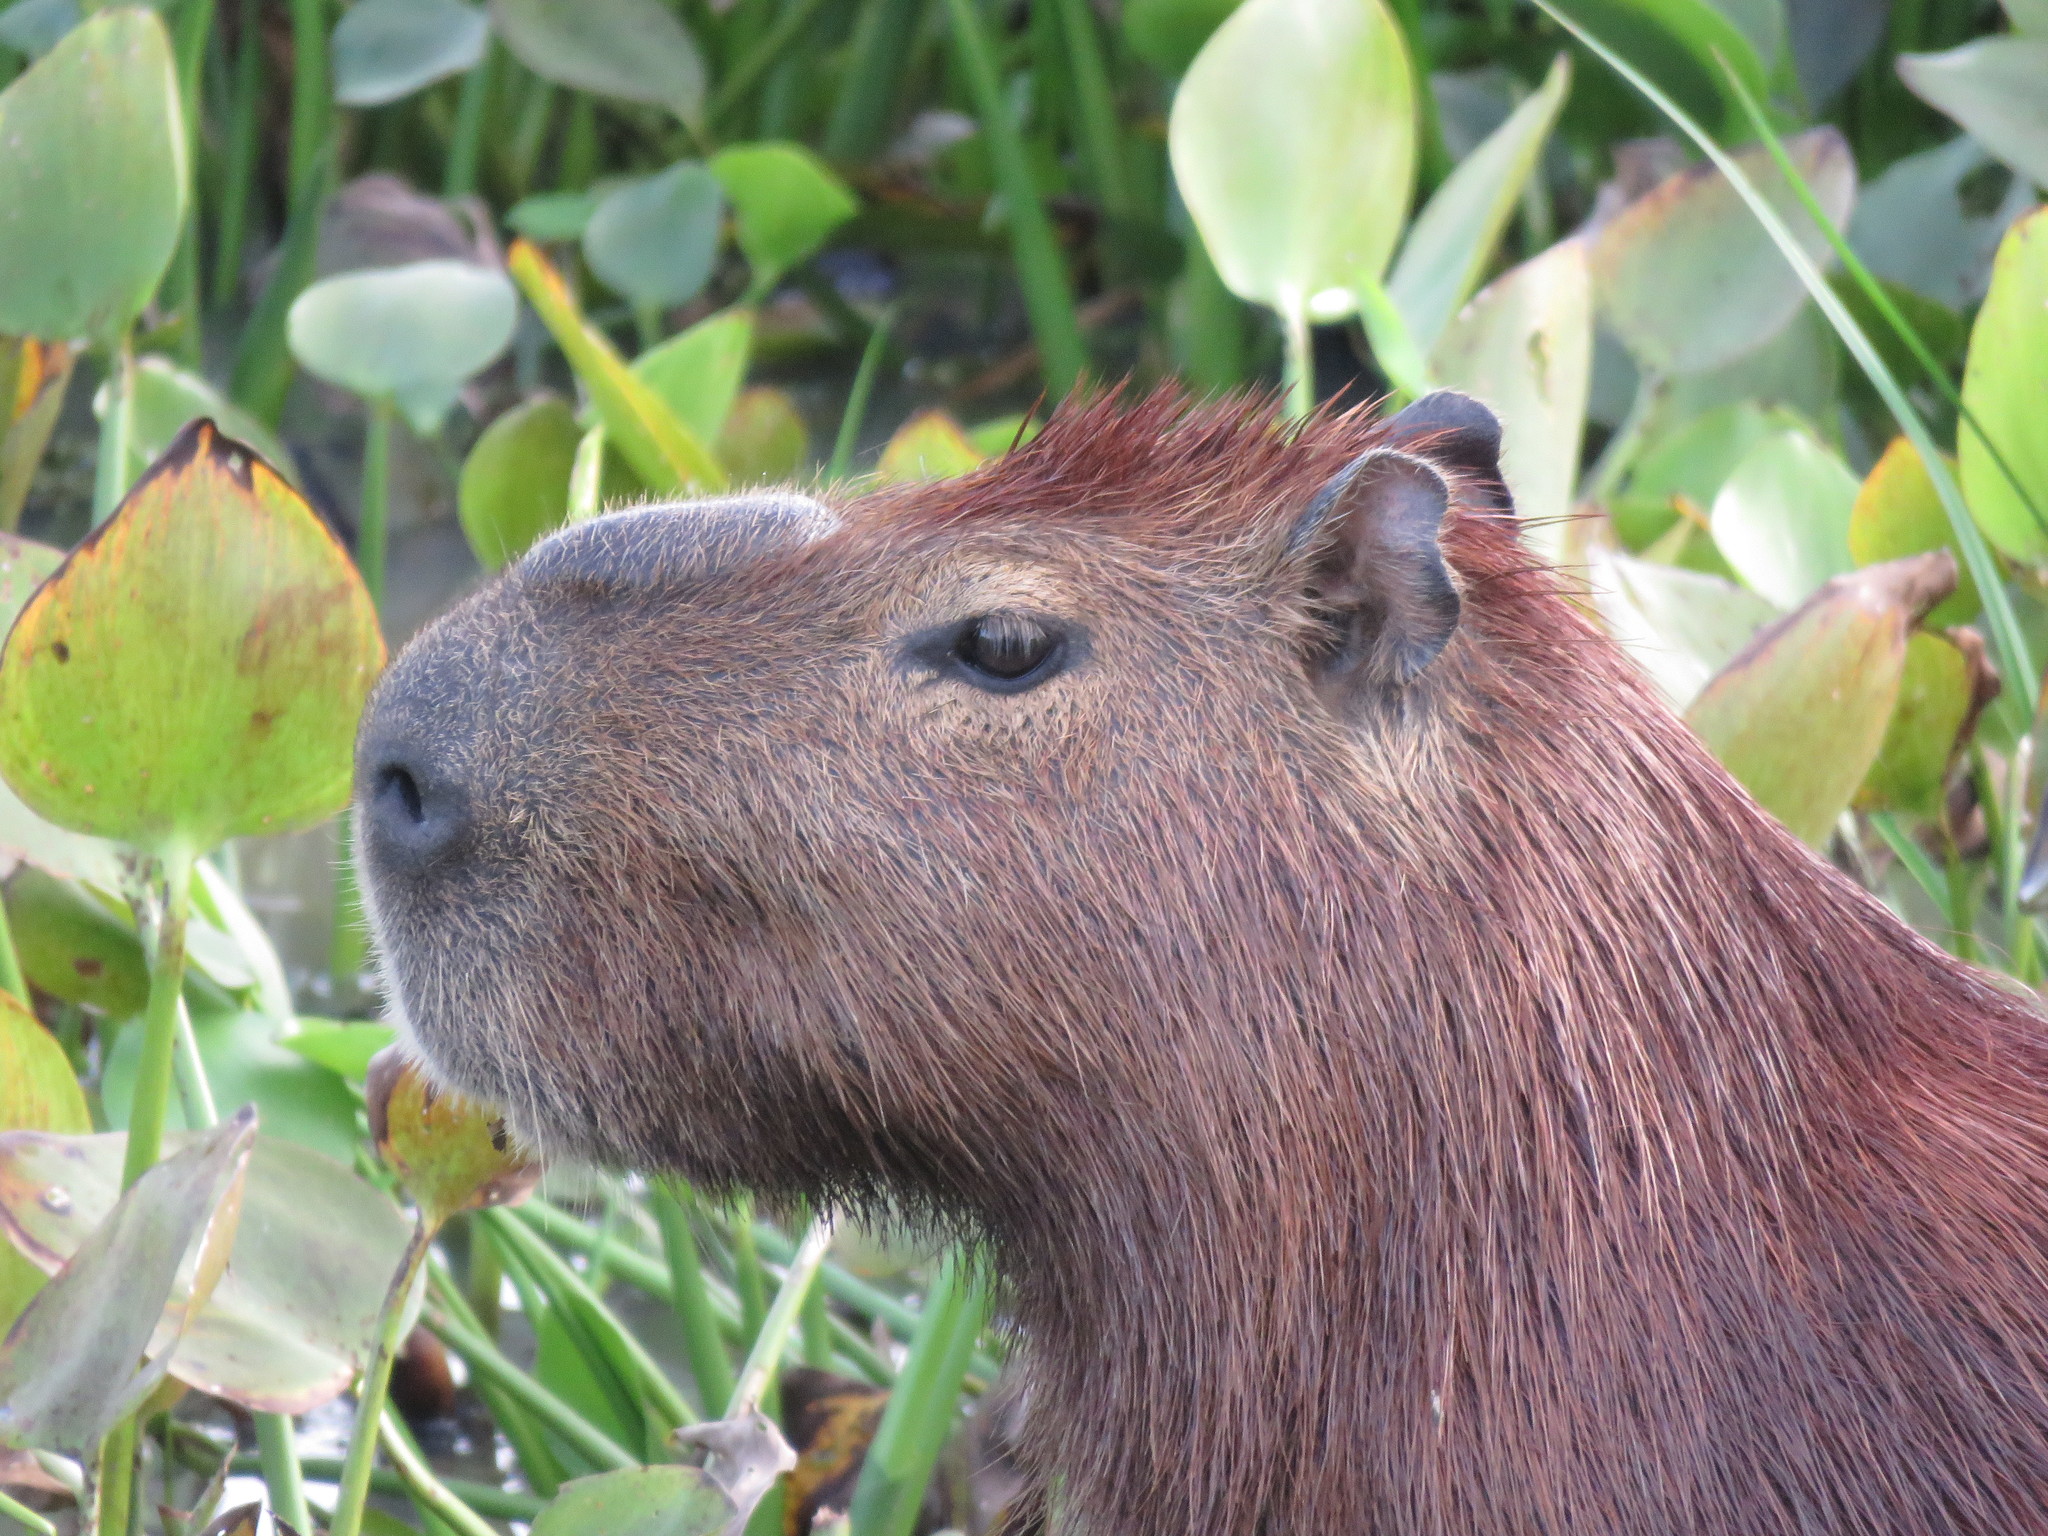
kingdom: Animalia
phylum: Chordata
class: Mammalia
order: Rodentia
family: Caviidae
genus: Hydrochoerus
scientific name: Hydrochoerus hydrochaeris
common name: Capybara
